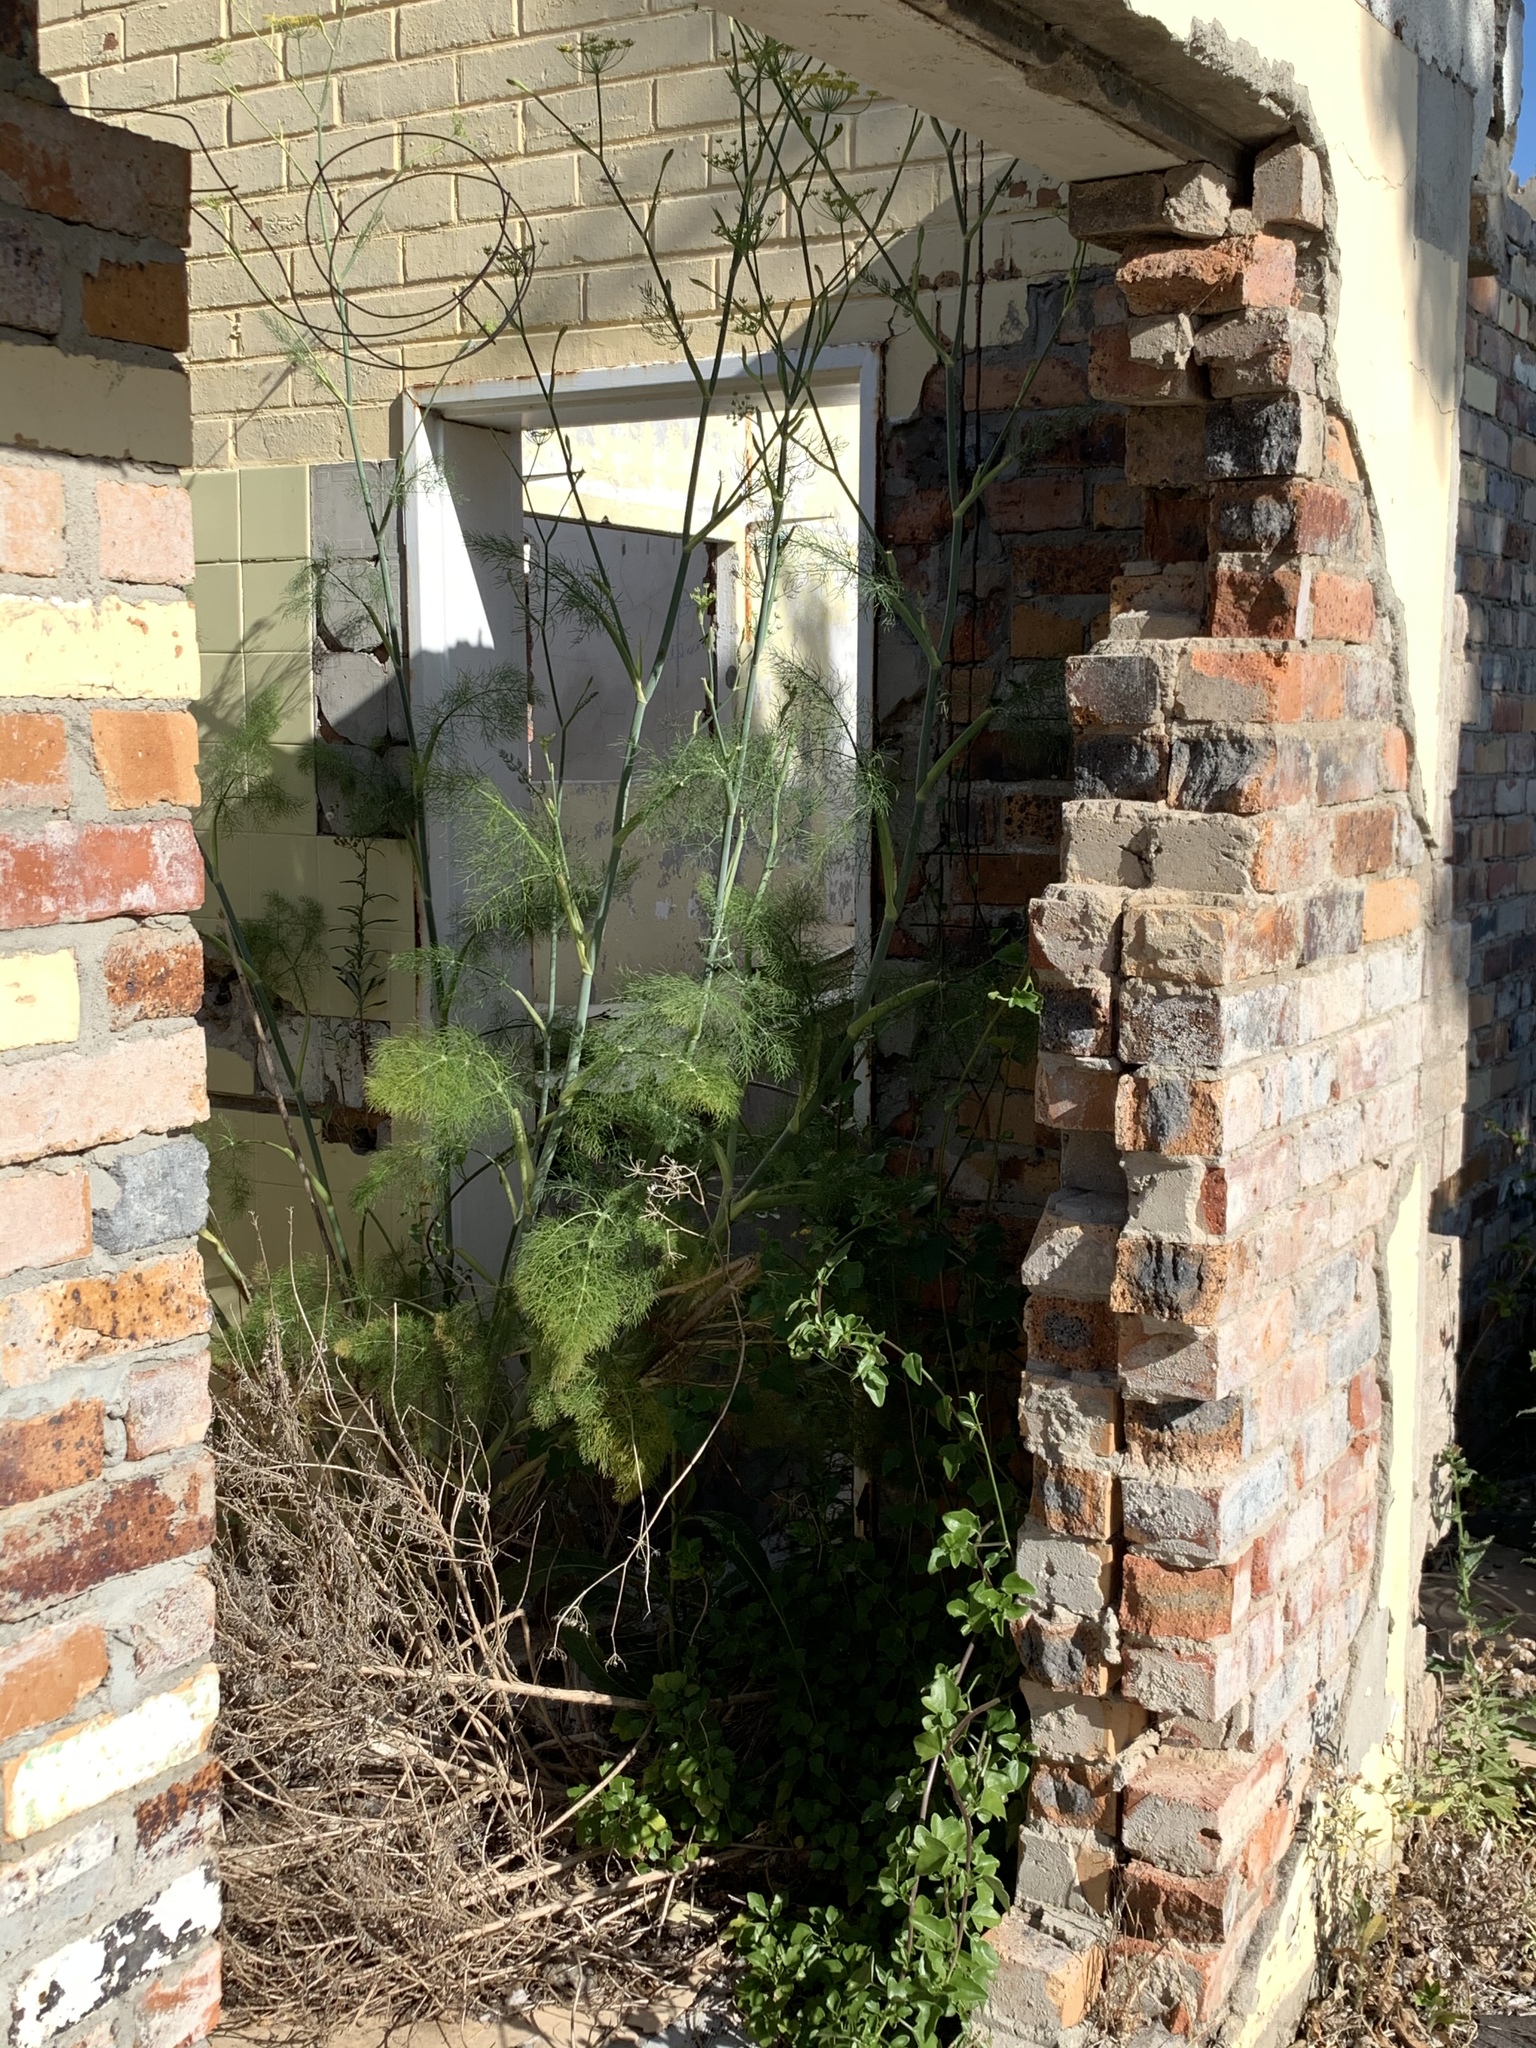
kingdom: Plantae
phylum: Tracheophyta
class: Magnoliopsida
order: Apiales
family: Apiaceae
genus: Foeniculum
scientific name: Foeniculum vulgare
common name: Fennel
